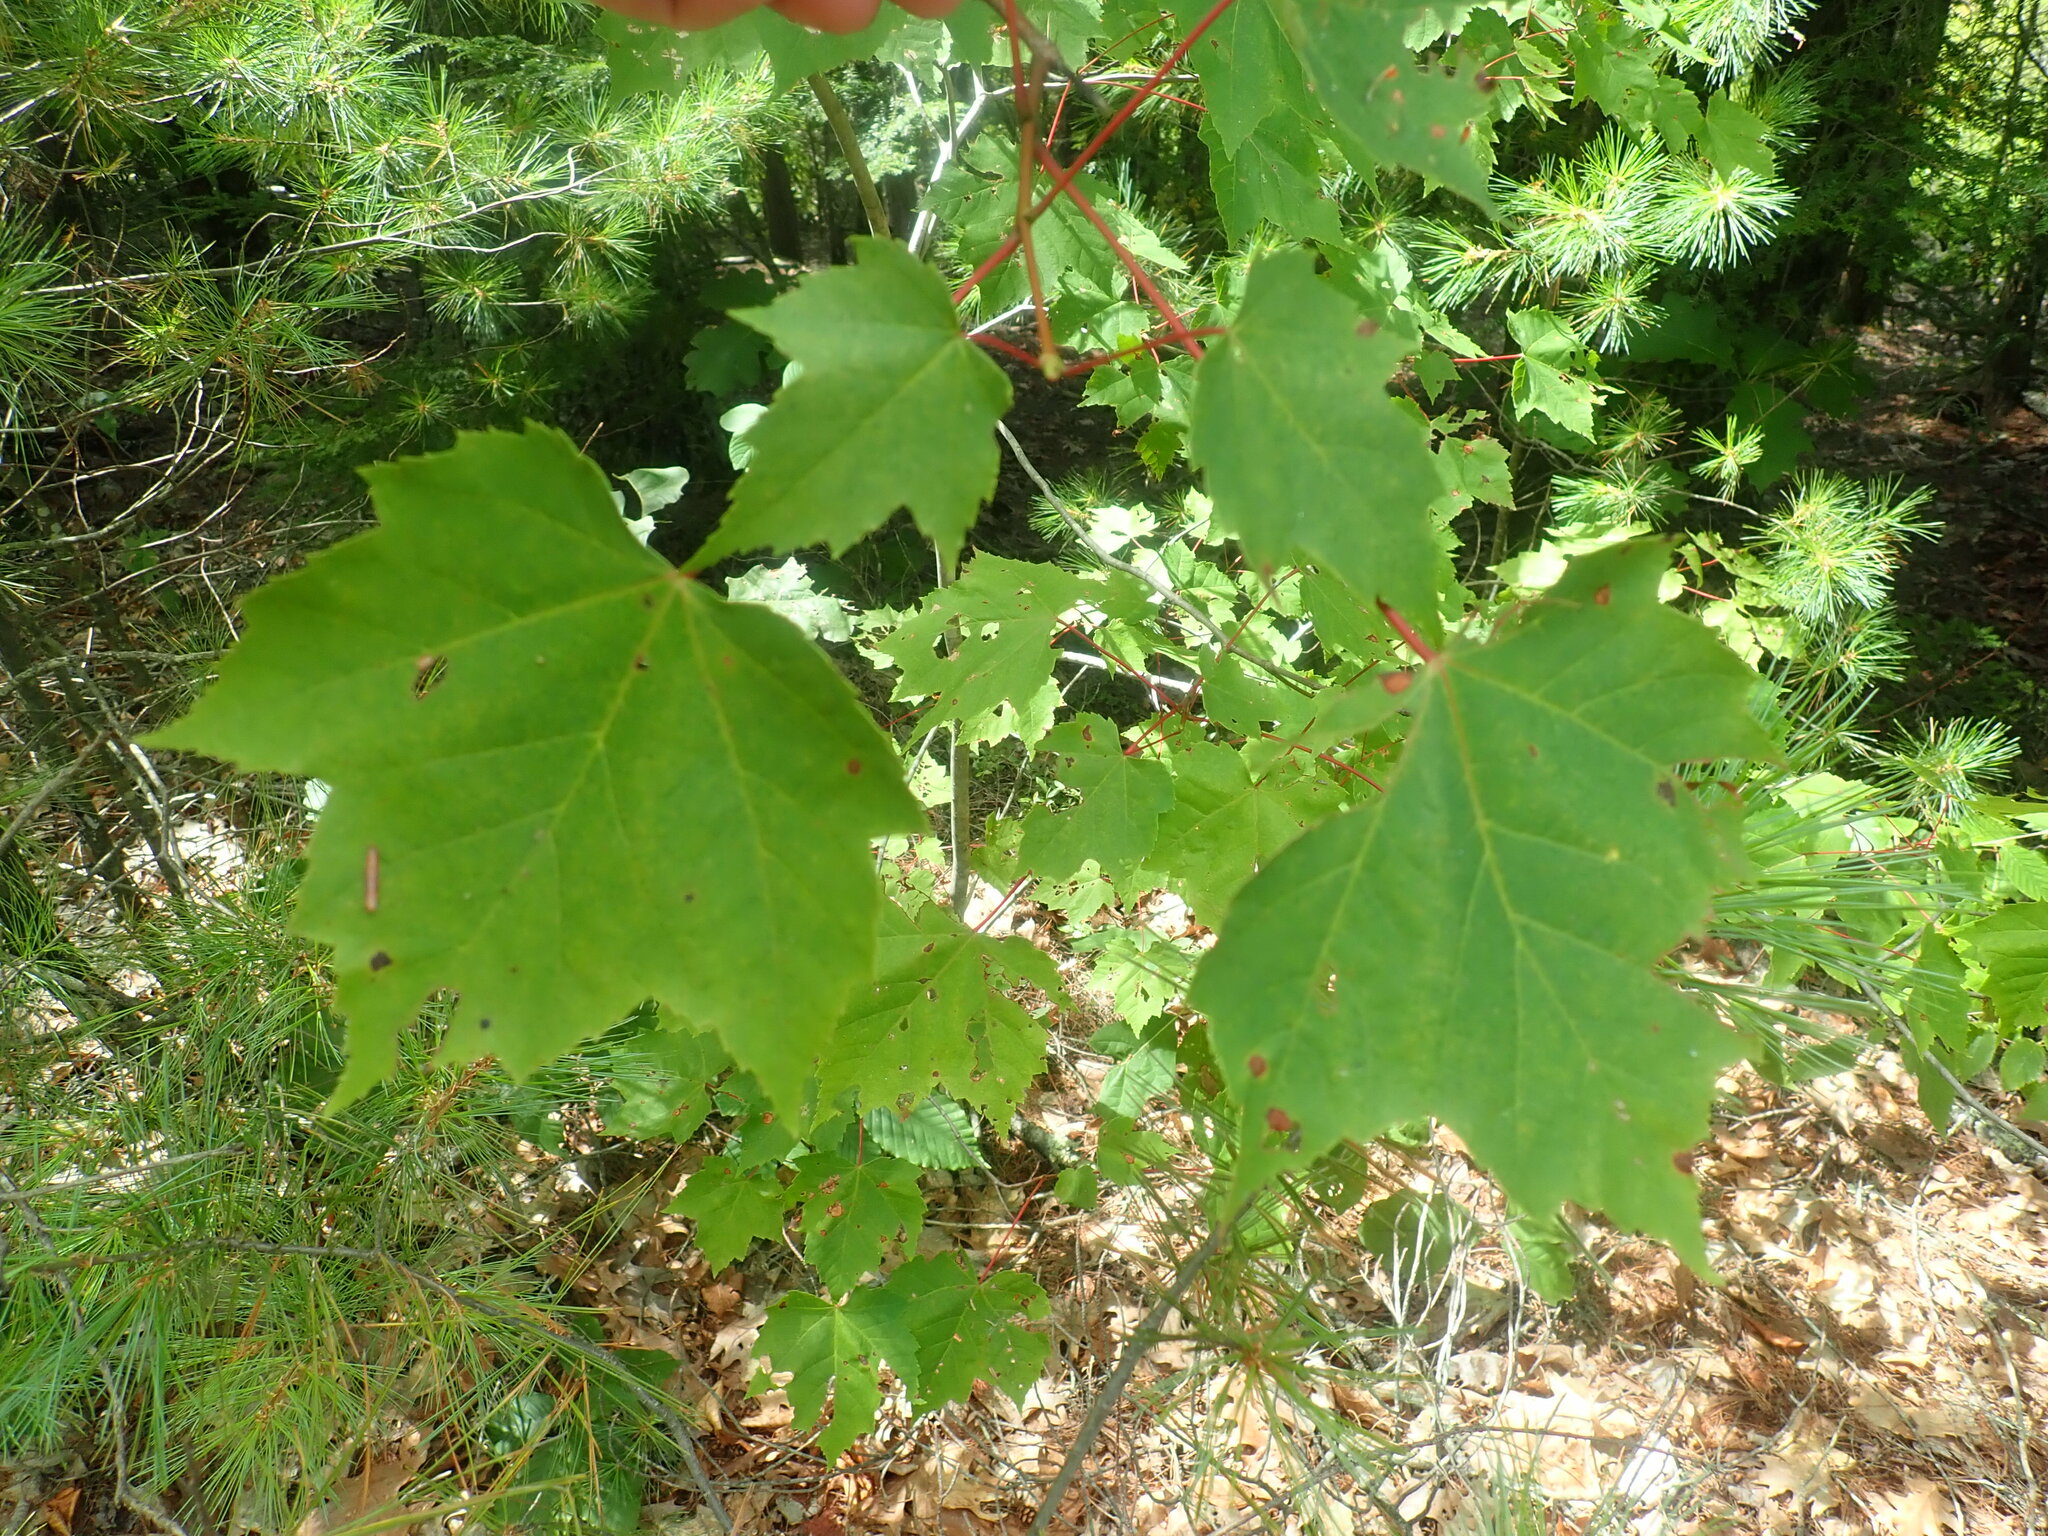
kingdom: Plantae
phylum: Tracheophyta
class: Magnoliopsida
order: Sapindales
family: Sapindaceae
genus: Acer
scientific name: Acer rubrum
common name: Red maple
